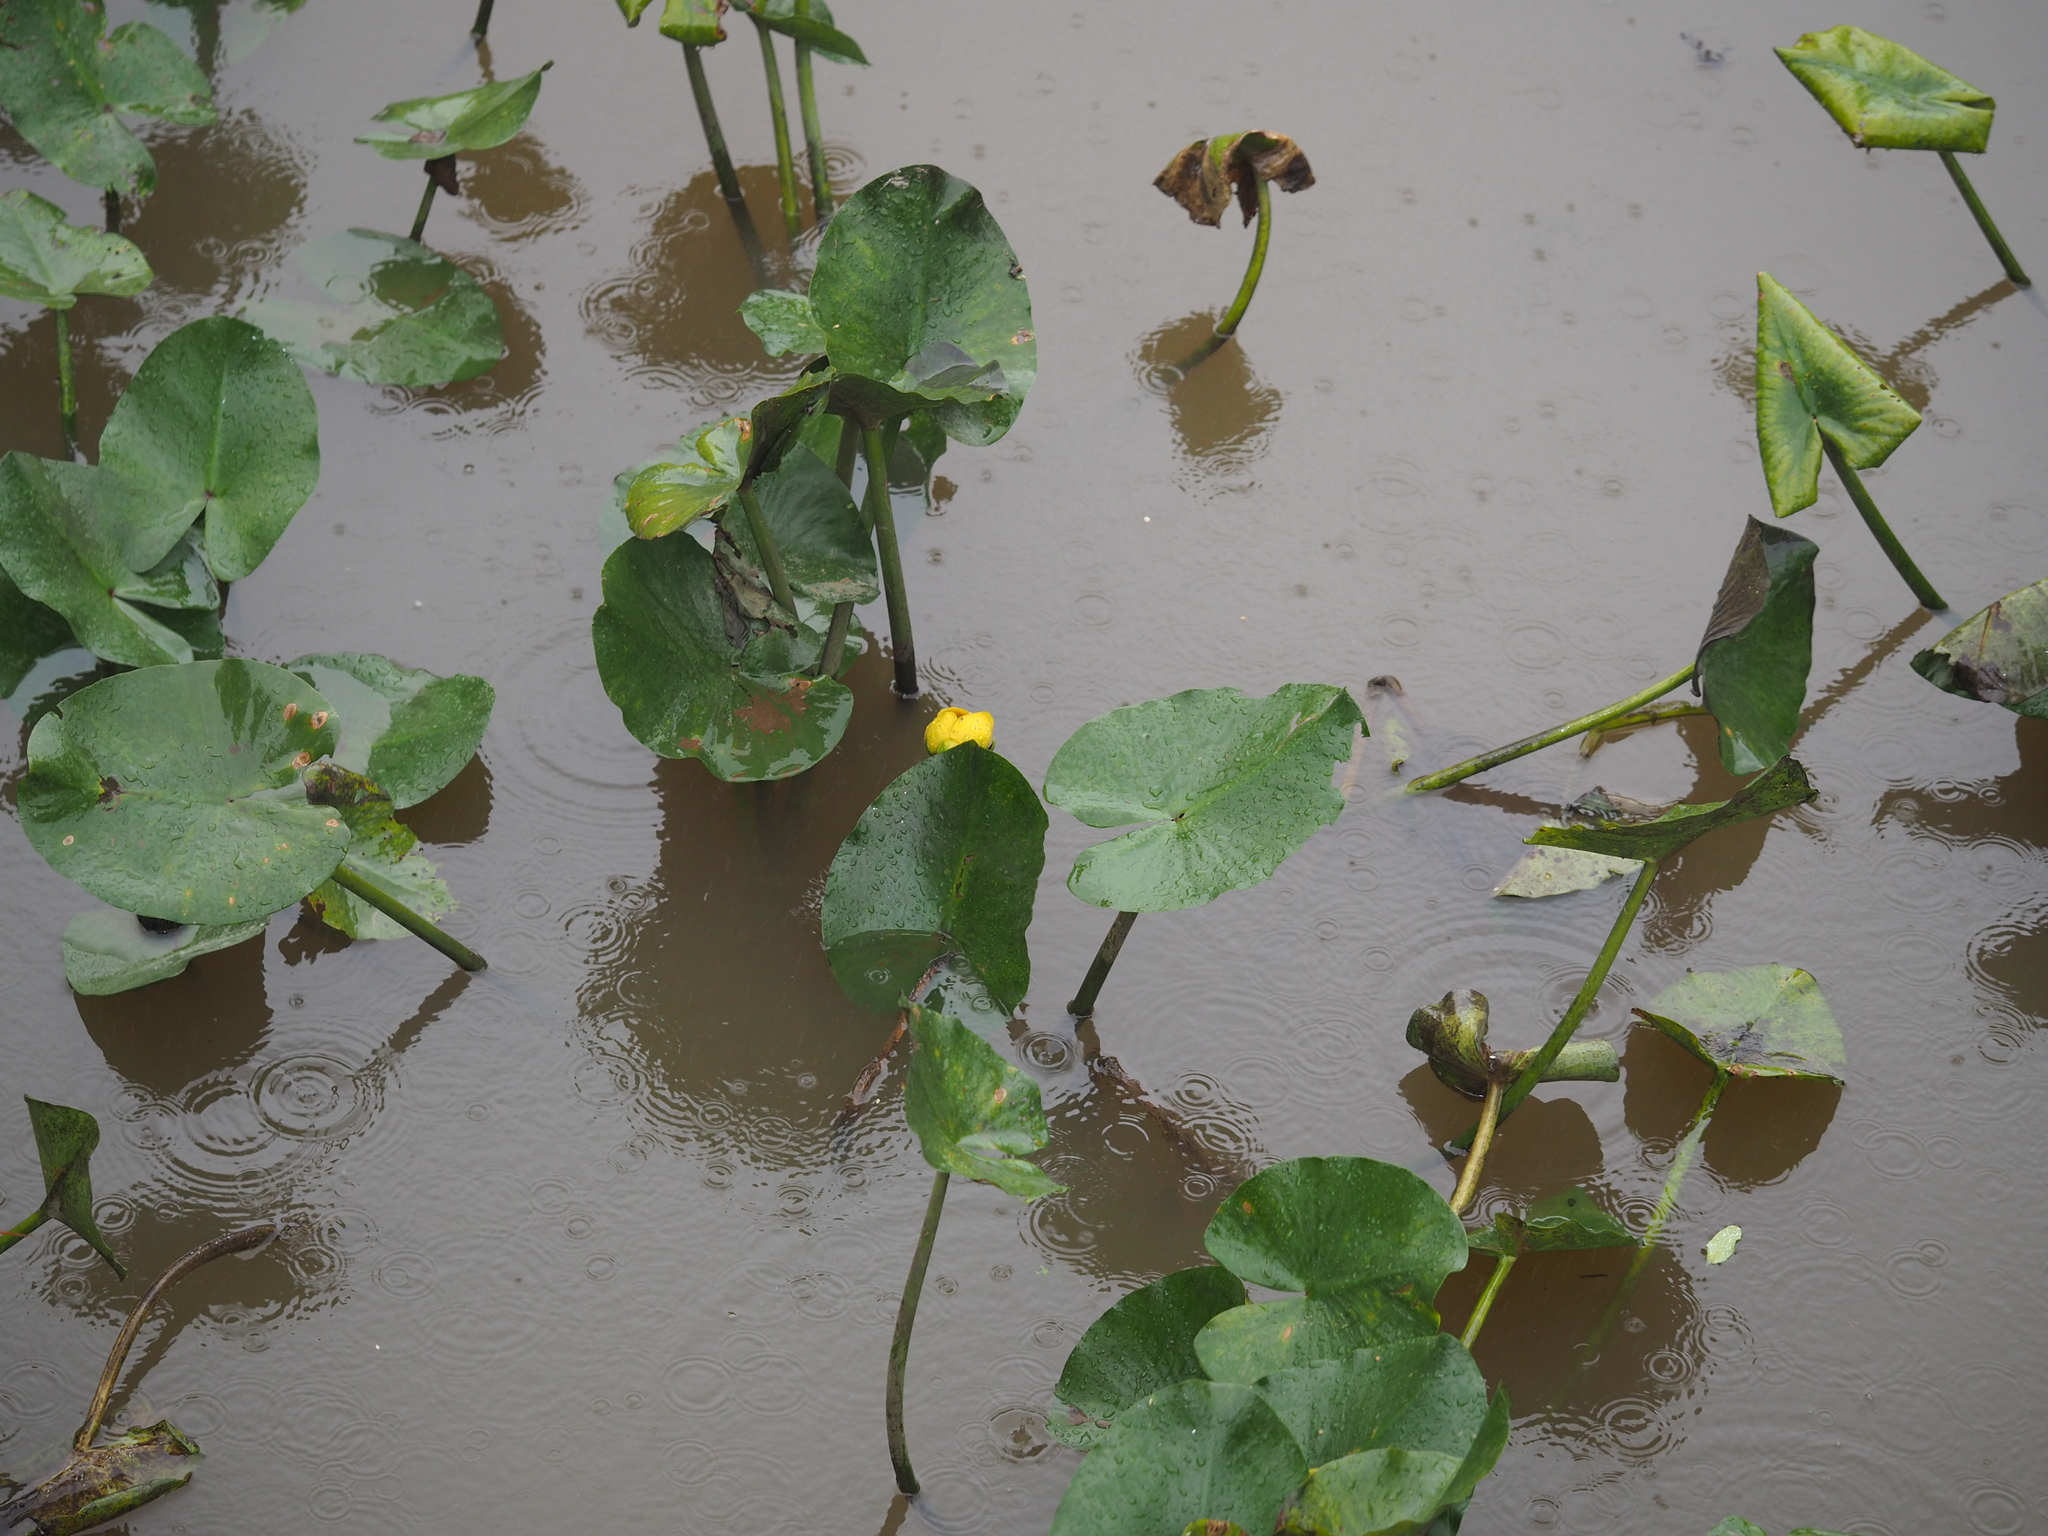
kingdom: Plantae
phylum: Tracheophyta
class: Magnoliopsida
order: Nymphaeales
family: Nymphaeaceae
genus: Nuphar
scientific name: Nuphar advena
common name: Spatter-dock
